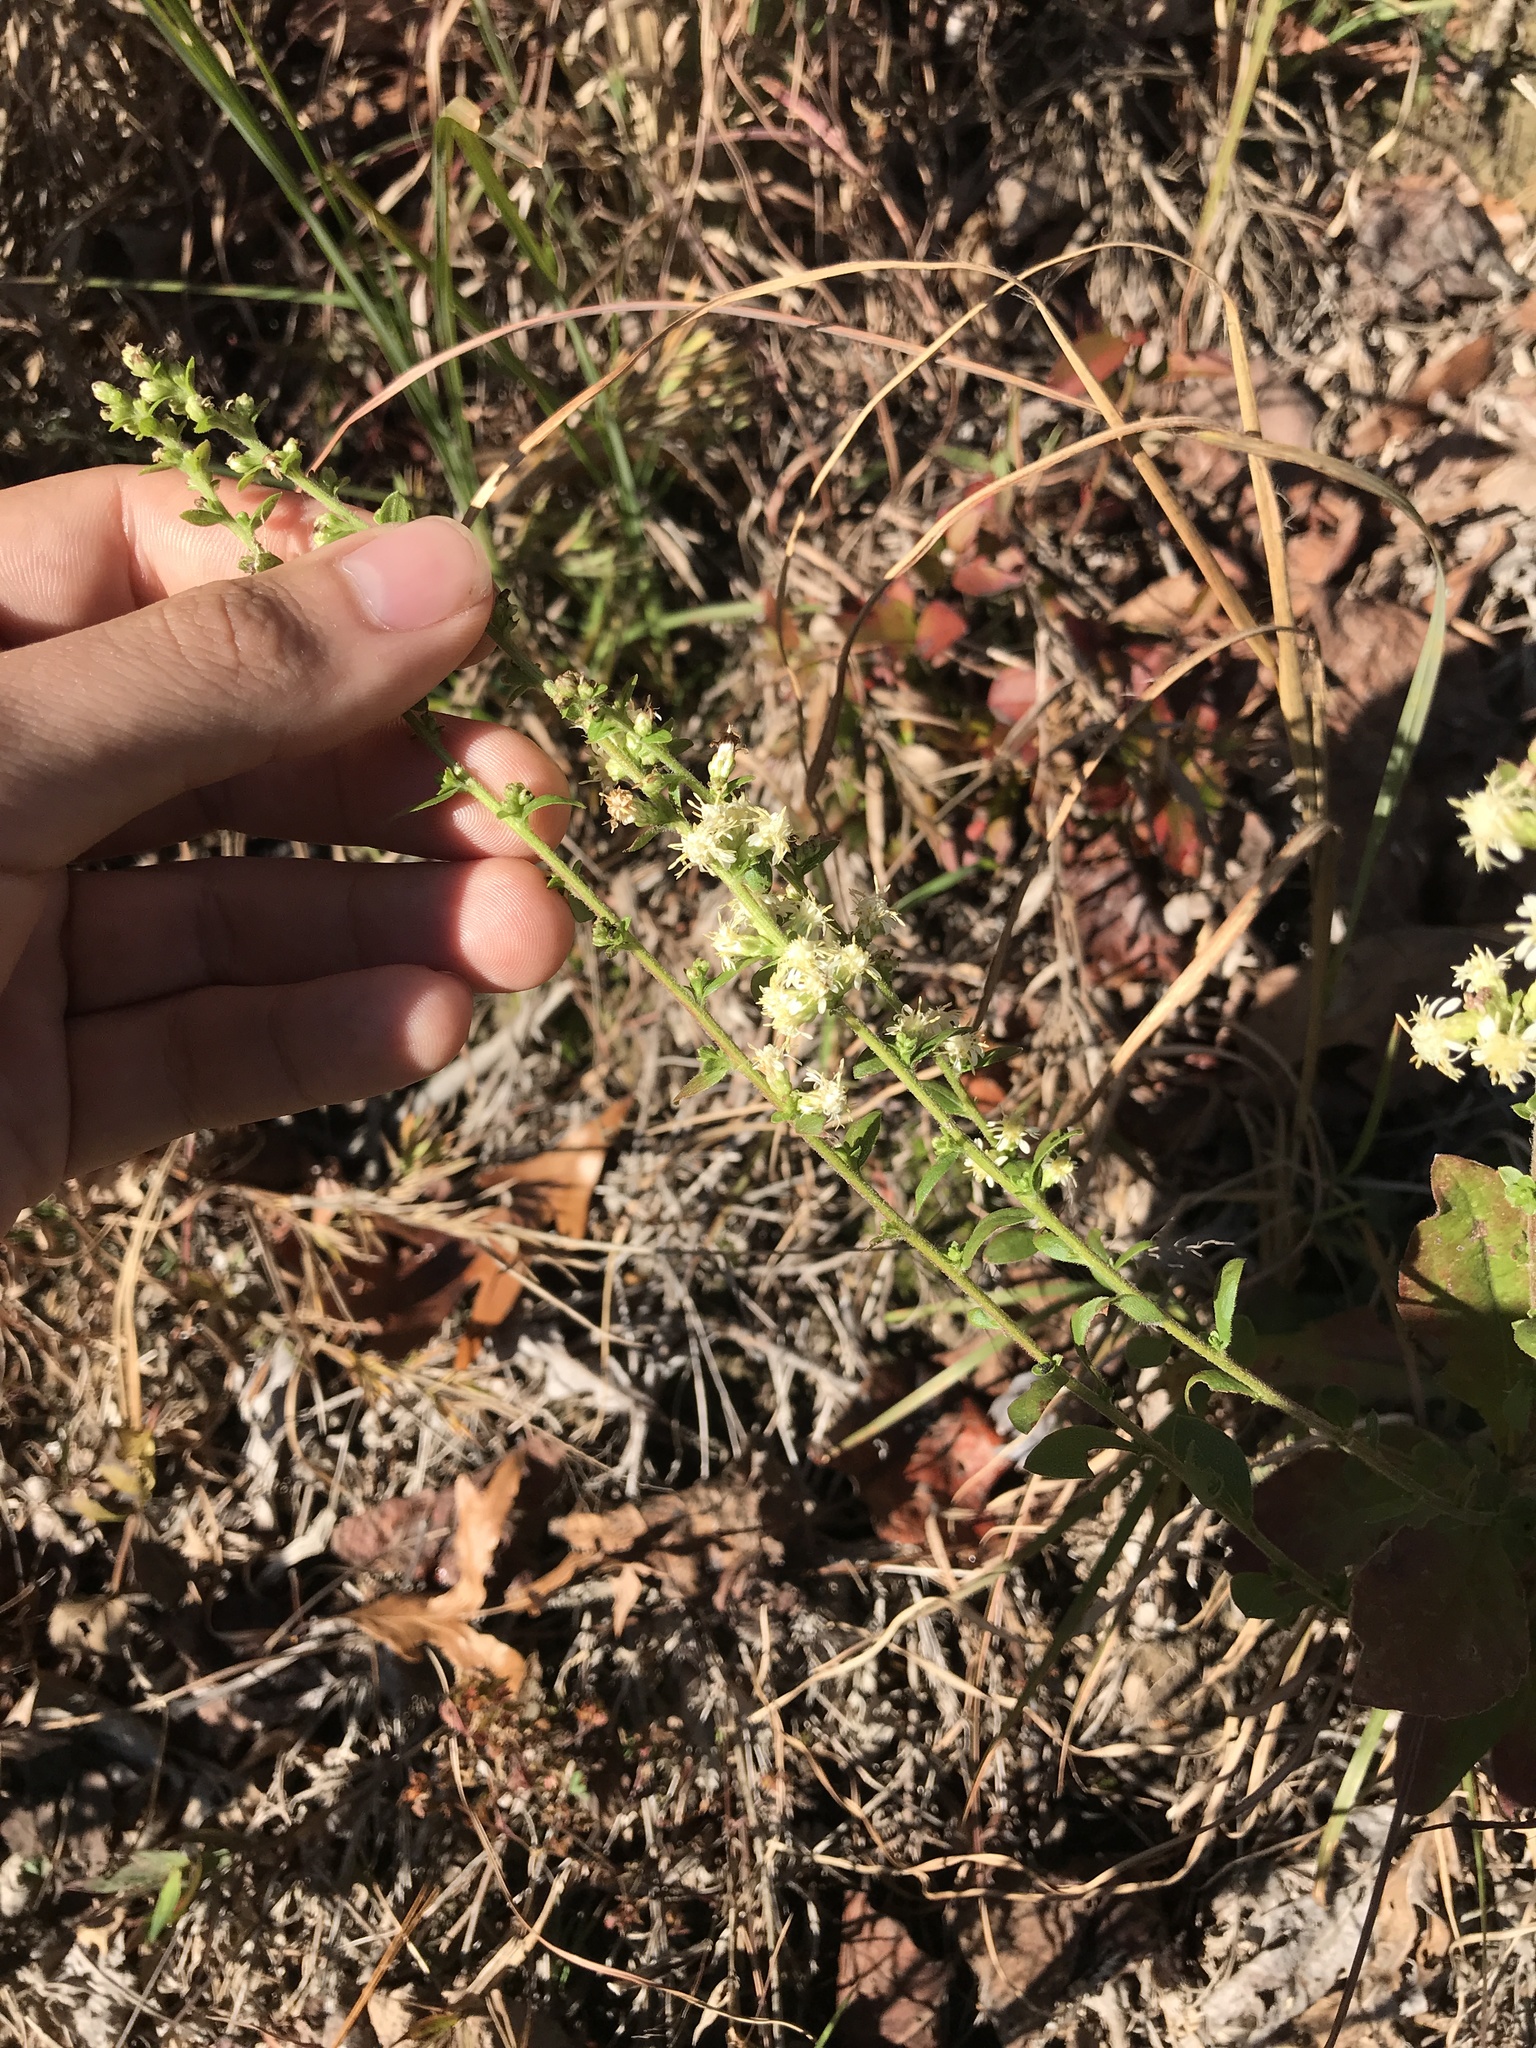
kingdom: Plantae
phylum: Tracheophyta
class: Magnoliopsida
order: Asterales
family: Asteraceae
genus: Solidago
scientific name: Solidago bicolor
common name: Silverrod
